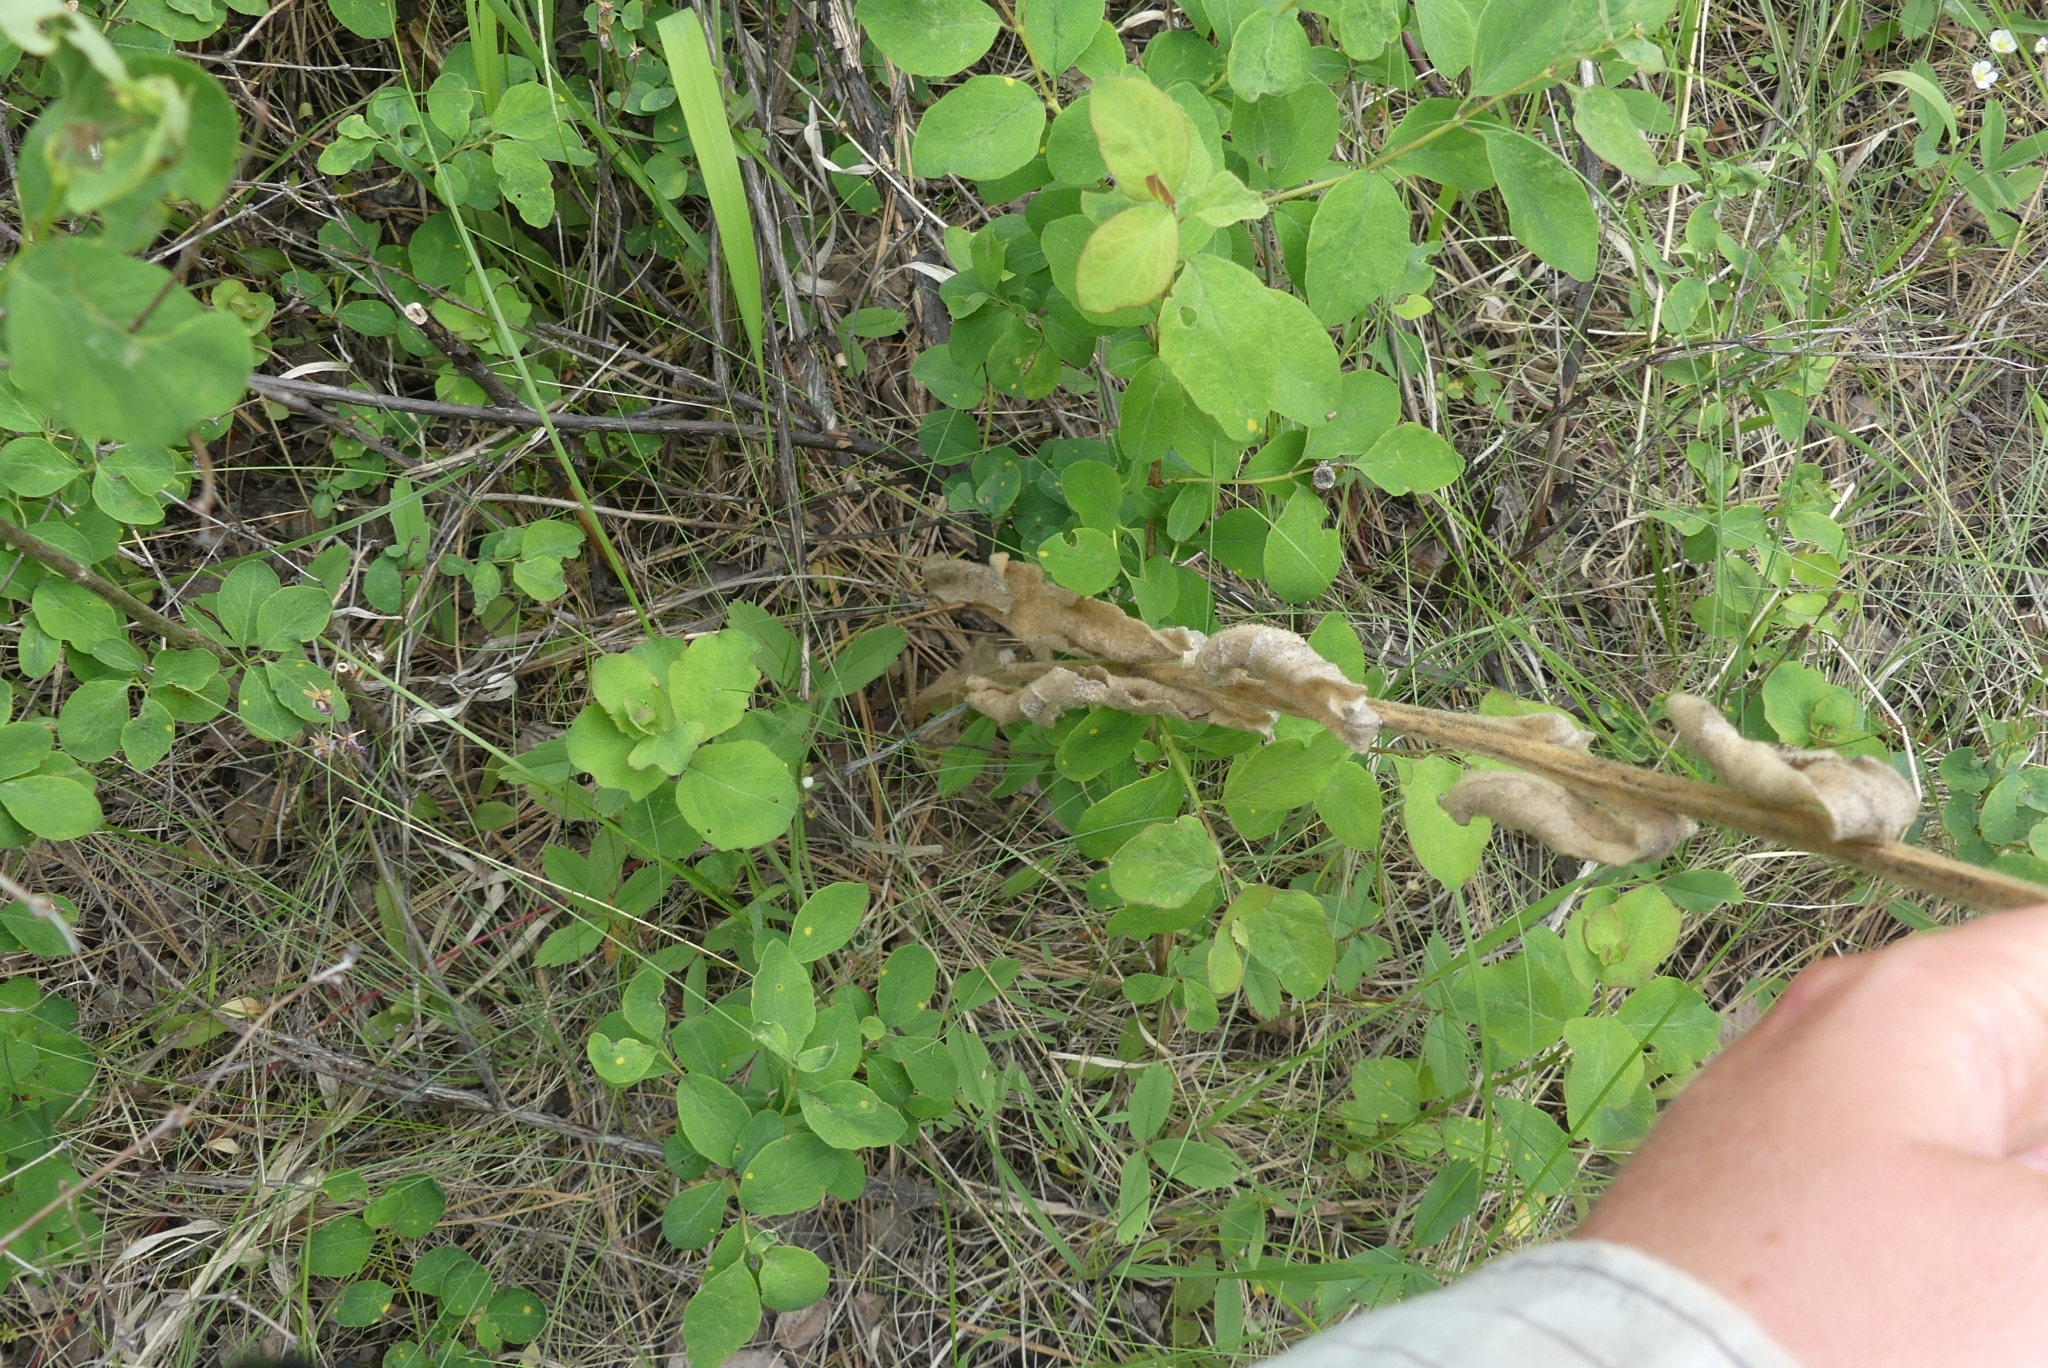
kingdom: Plantae
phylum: Tracheophyta
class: Magnoliopsida
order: Lamiales
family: Scrophulariaceae
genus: Verbascum
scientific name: Verbascum thapsus
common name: Common mullein
